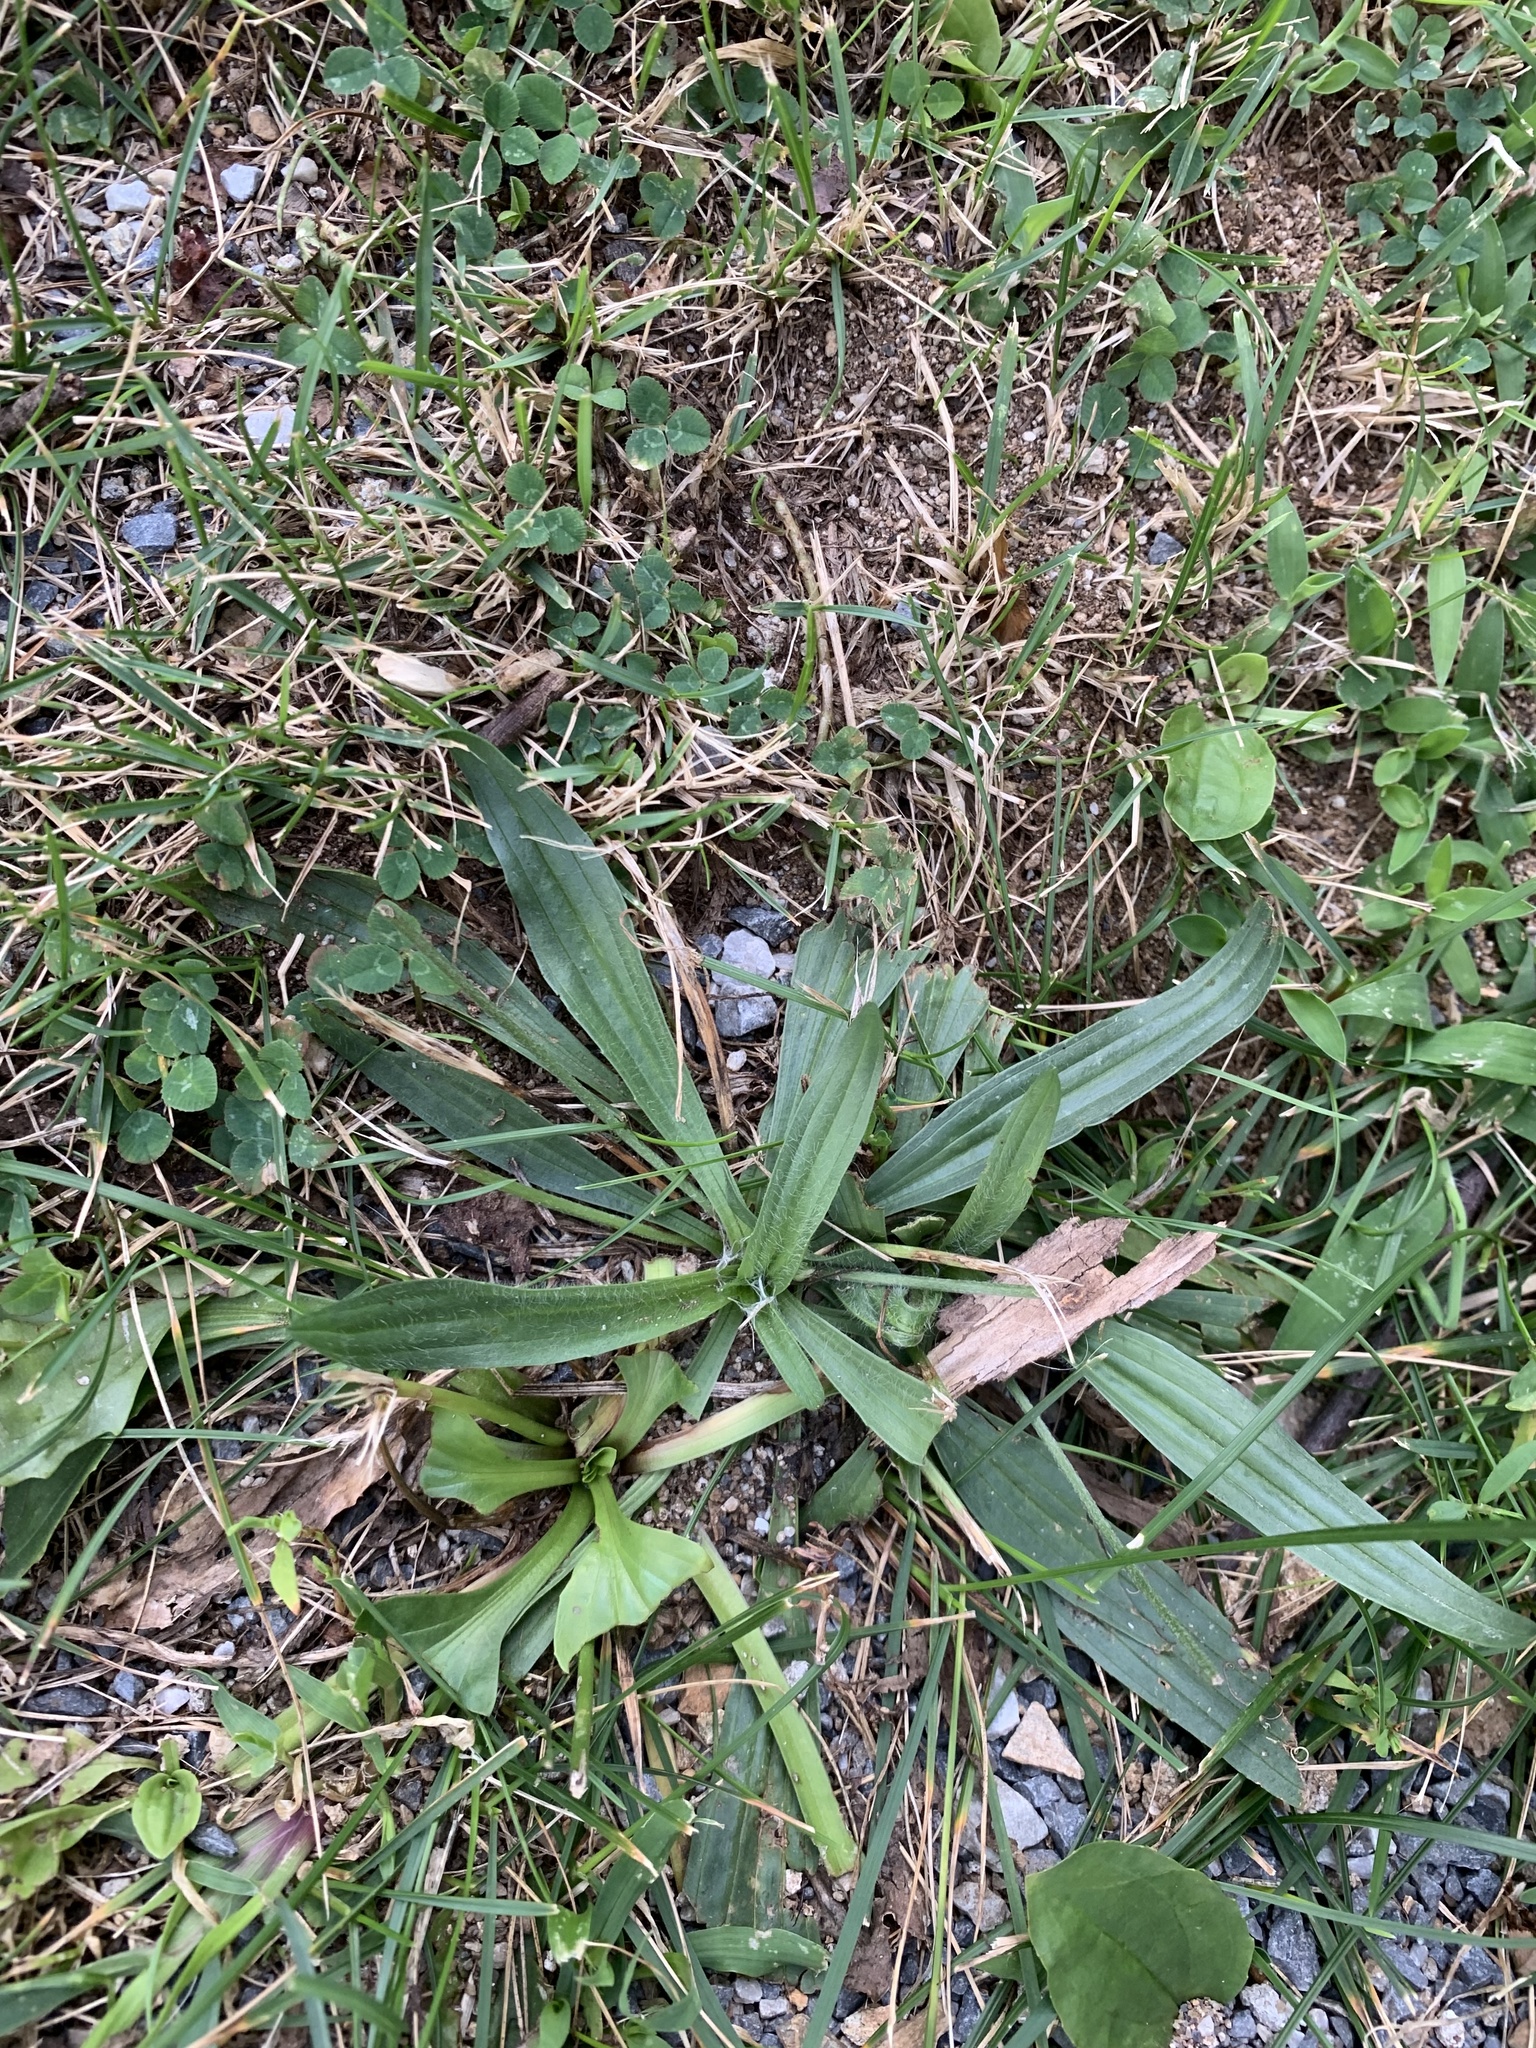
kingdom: Plantae
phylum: Tracheophyta
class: Magnoliopsida
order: Lamiales
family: Plantaginaceae
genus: Plantago
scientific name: Plantago lanceolata
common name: Ribwort plantain
